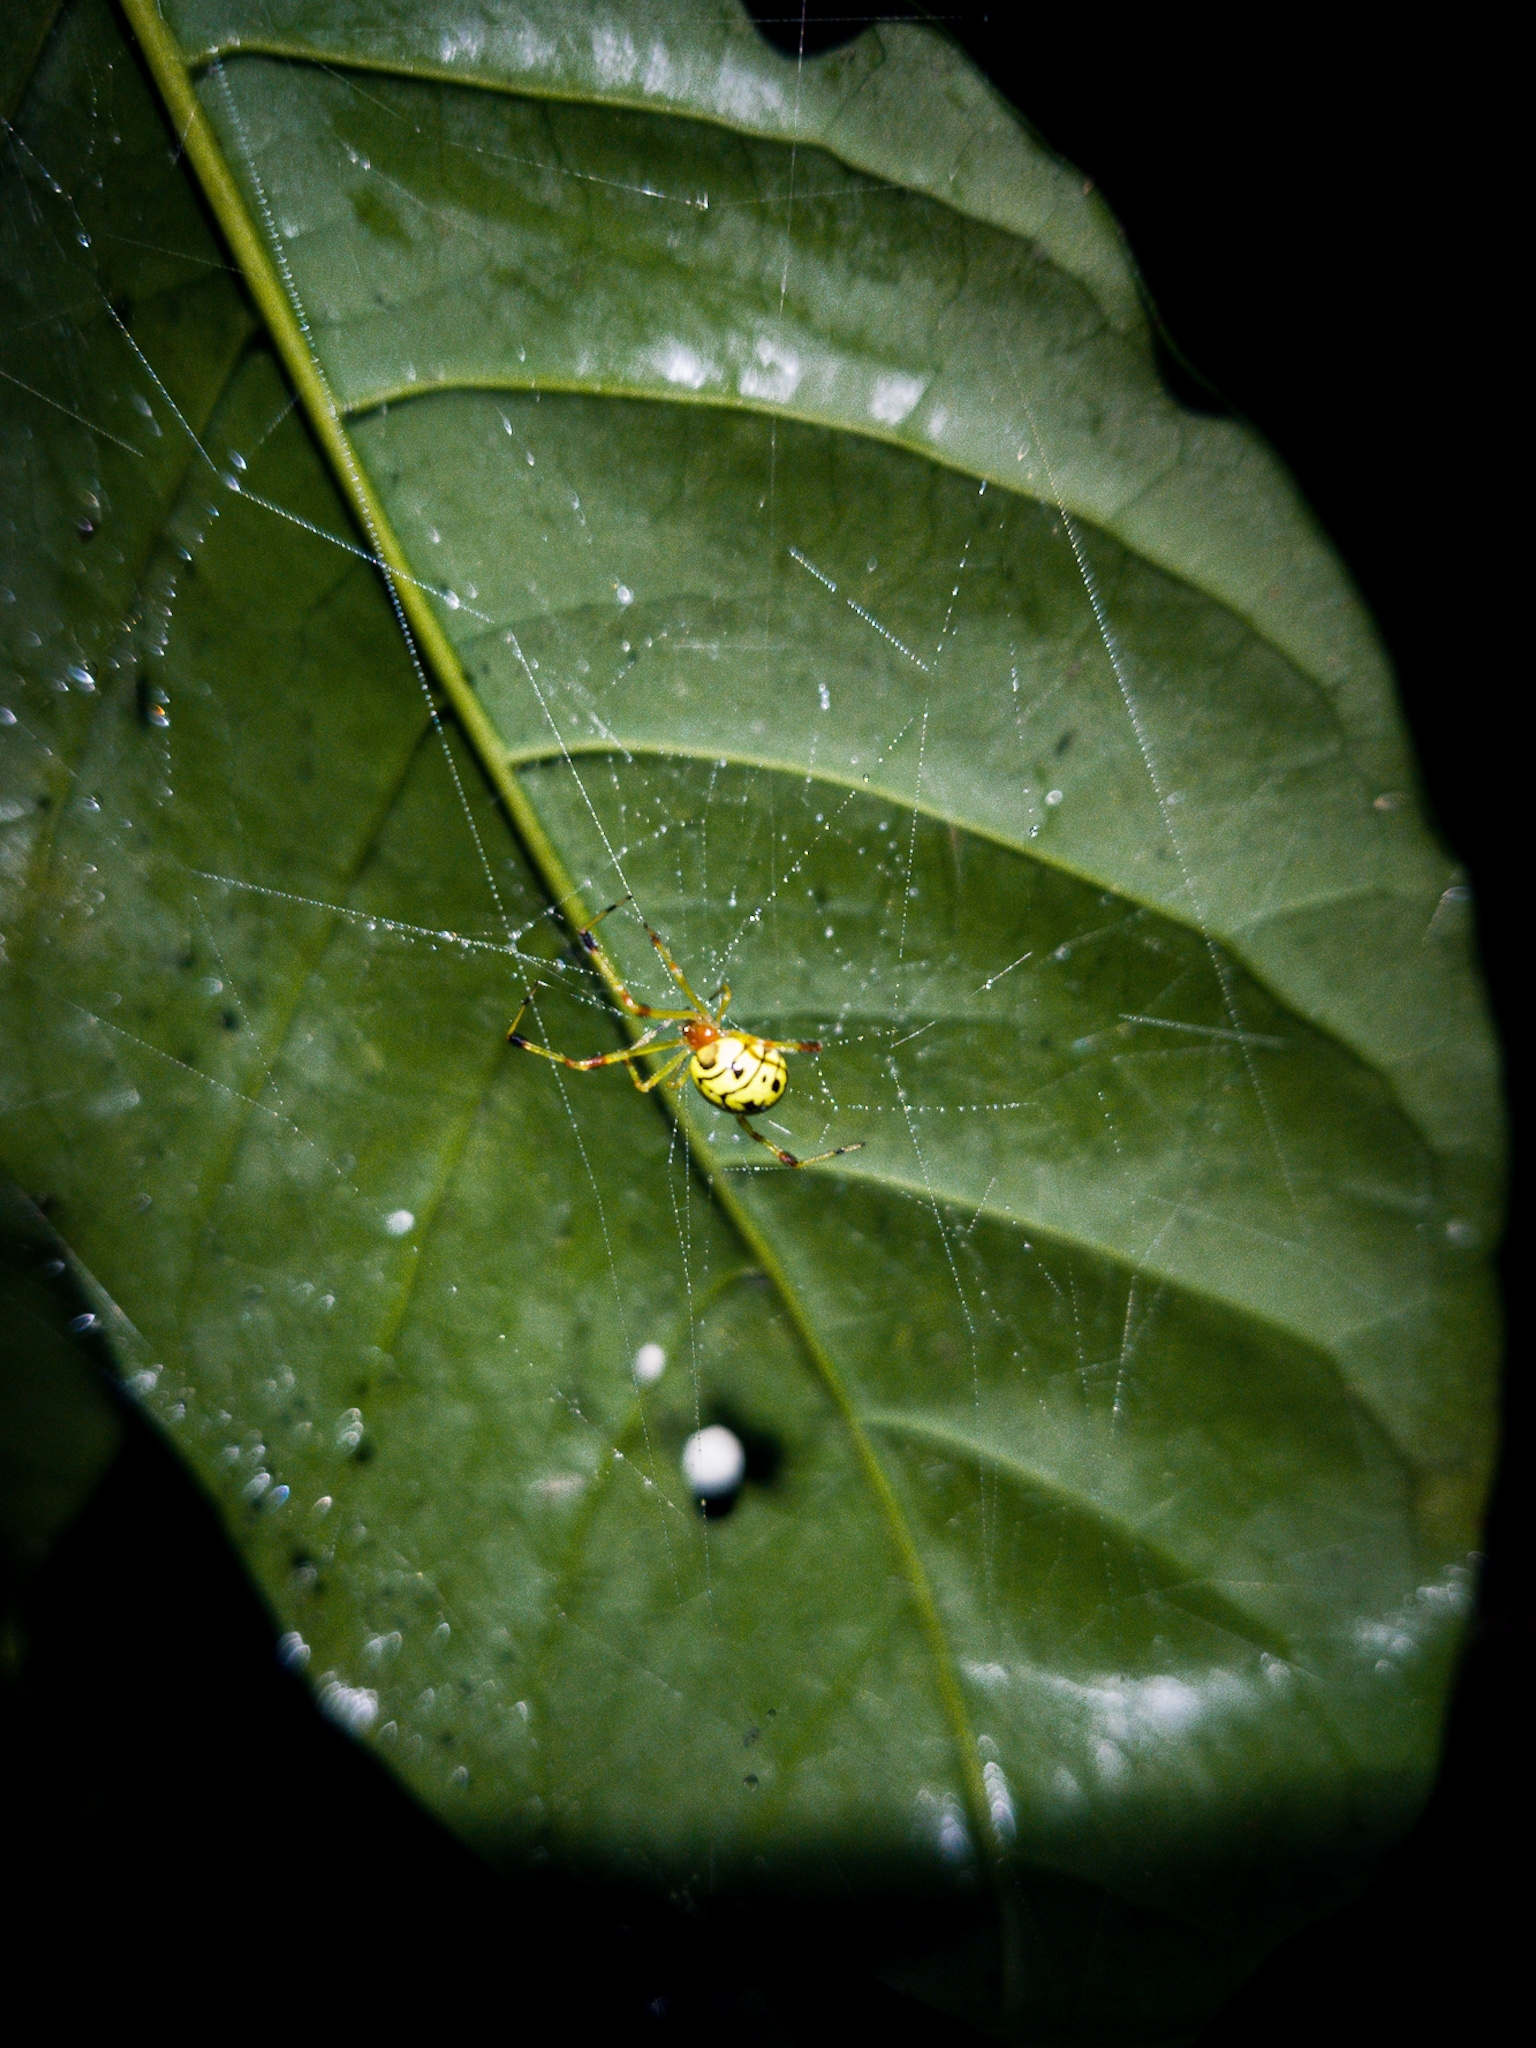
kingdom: Animalia
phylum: Arthropoda
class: Arachnida
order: Araneae
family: Theridiidae
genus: Chrysso
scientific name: Chrysso urbasae
